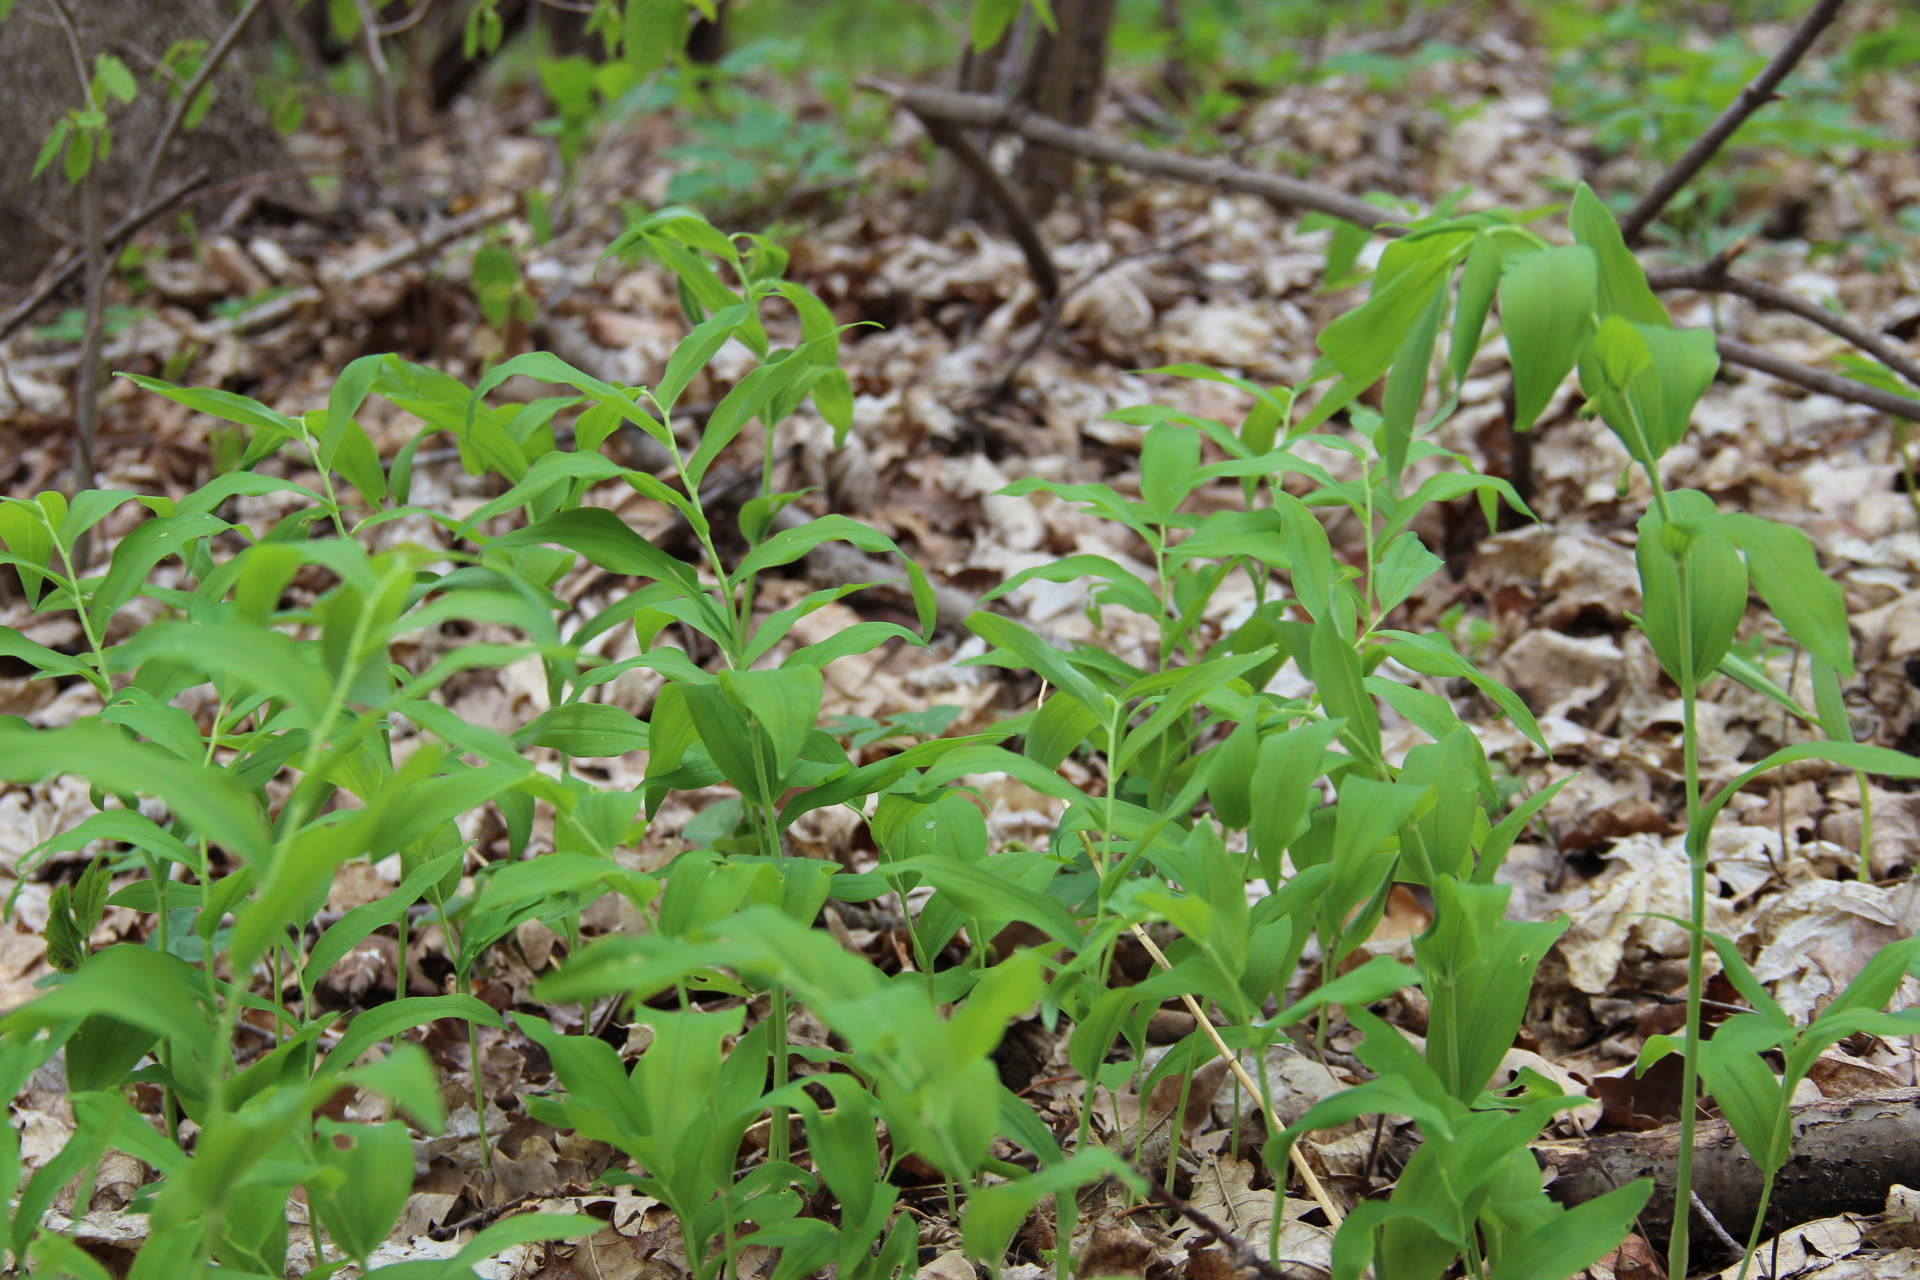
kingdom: Plantae
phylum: Tracheophyta
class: Liliopsida
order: Asparagales
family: Asparagaceae
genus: Polygonatum
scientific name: Polygonatum multiflorum
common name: Solomon's-seal
